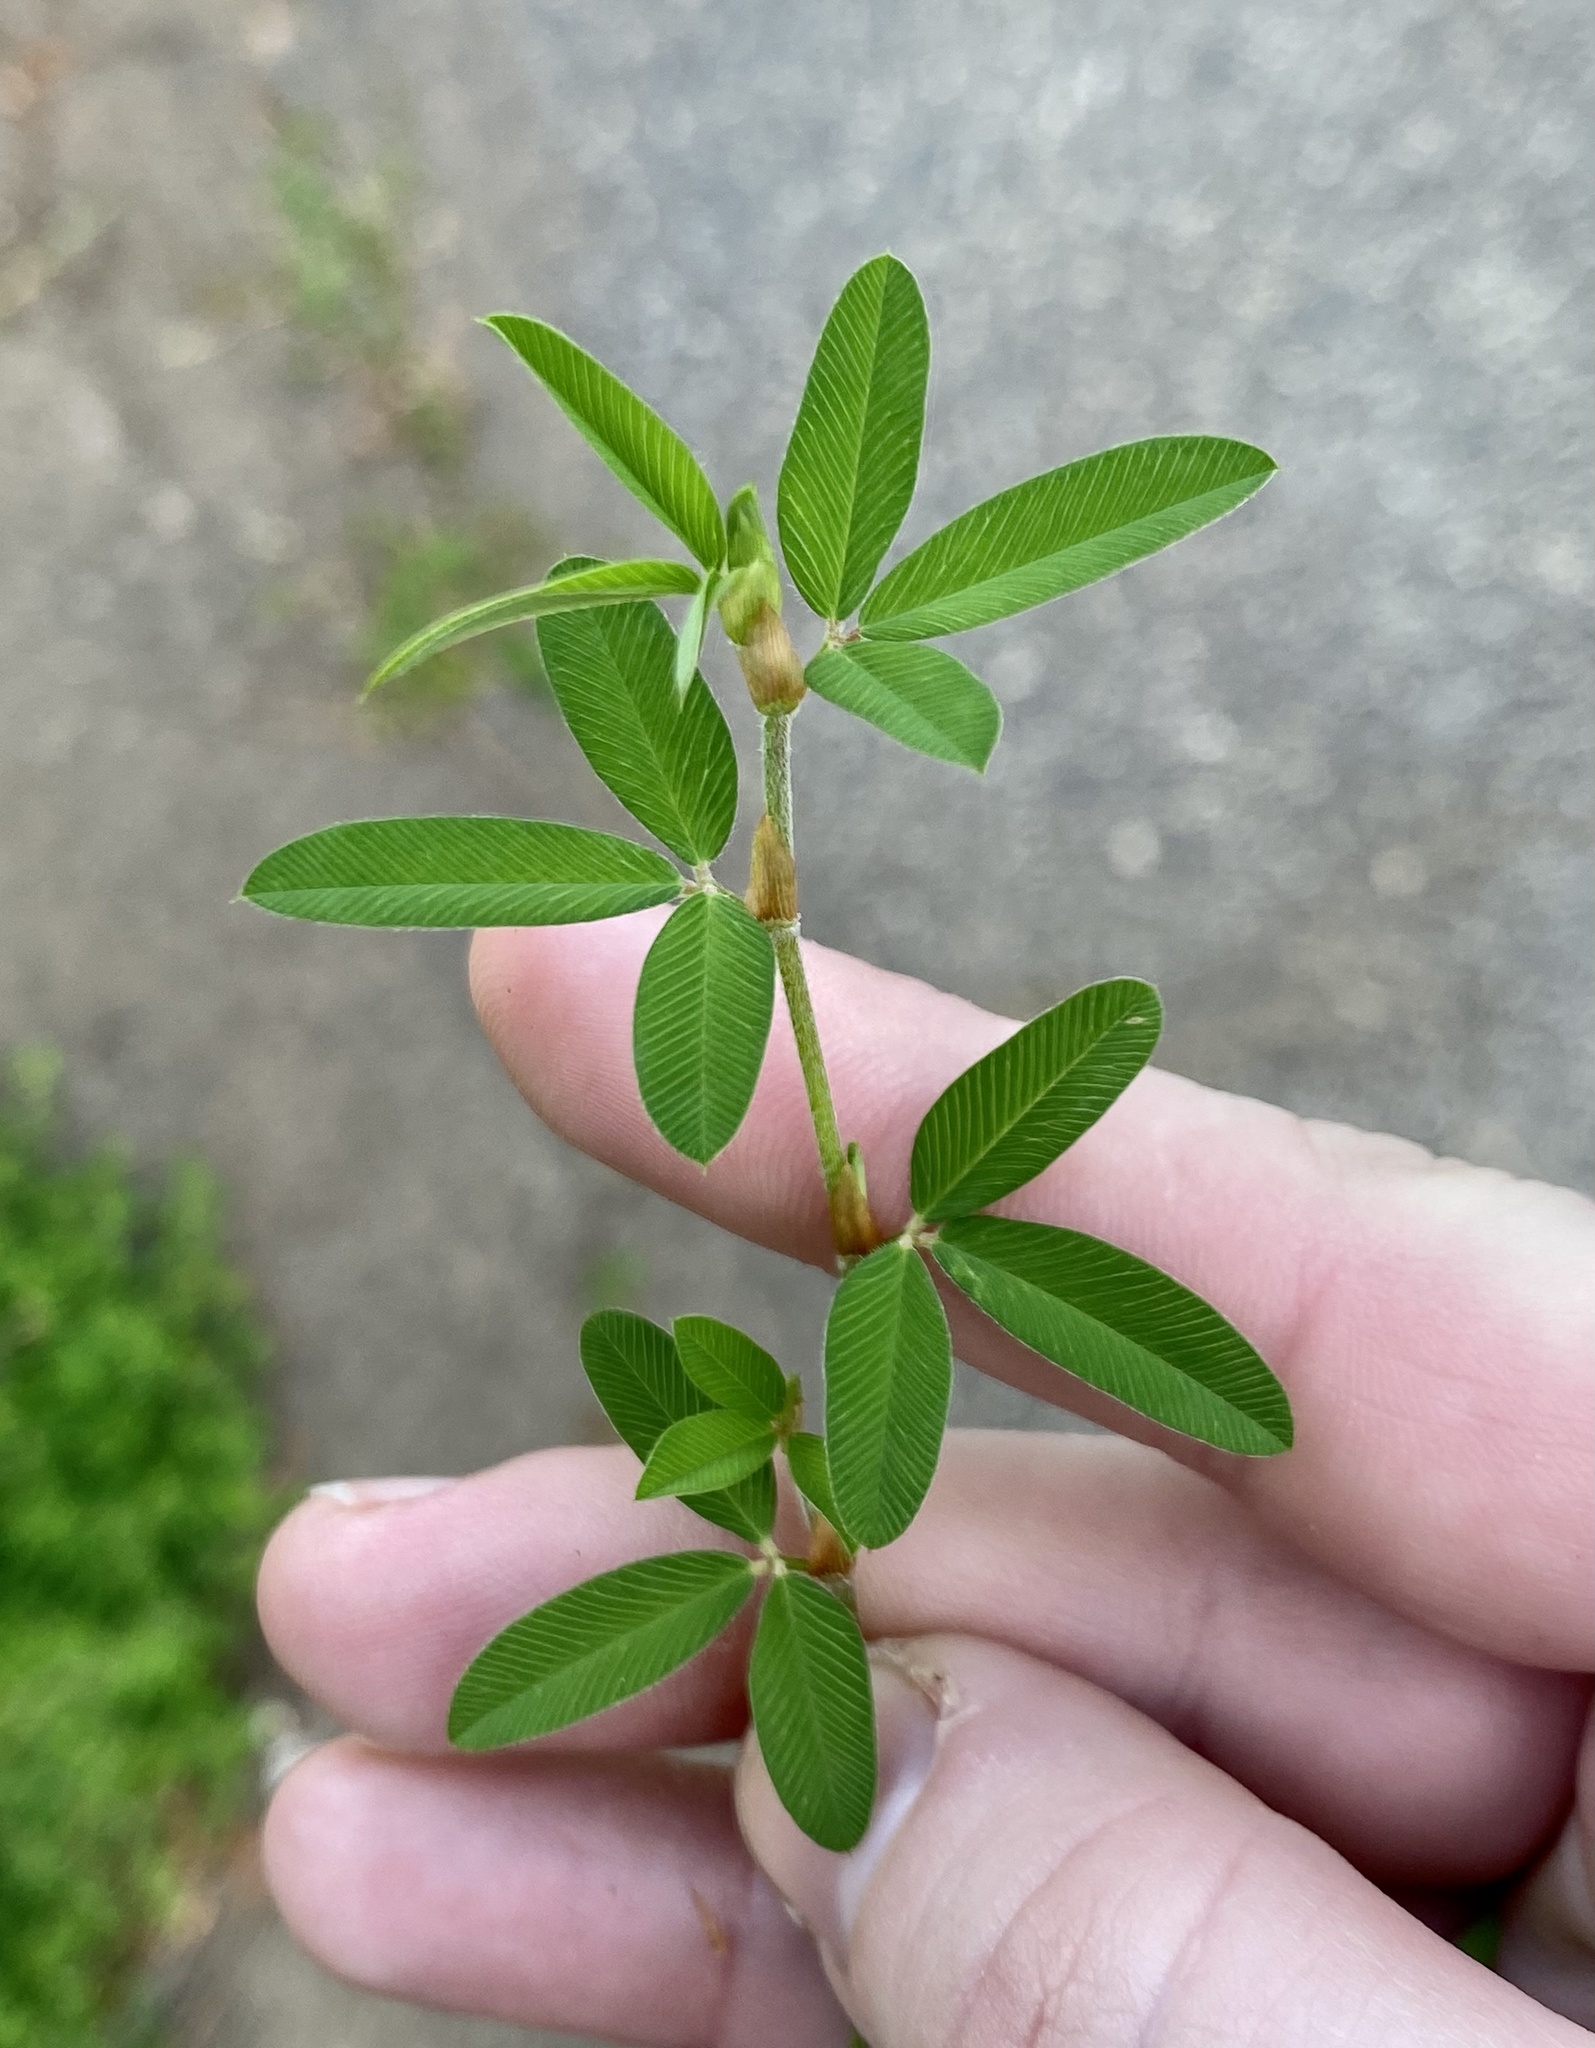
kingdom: Plantae
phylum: Tracheophyta
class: Magnoliopsida
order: Fabales
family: Fabaceae
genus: Kummerowia
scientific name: Kummerowia striata
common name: Japanese clover
